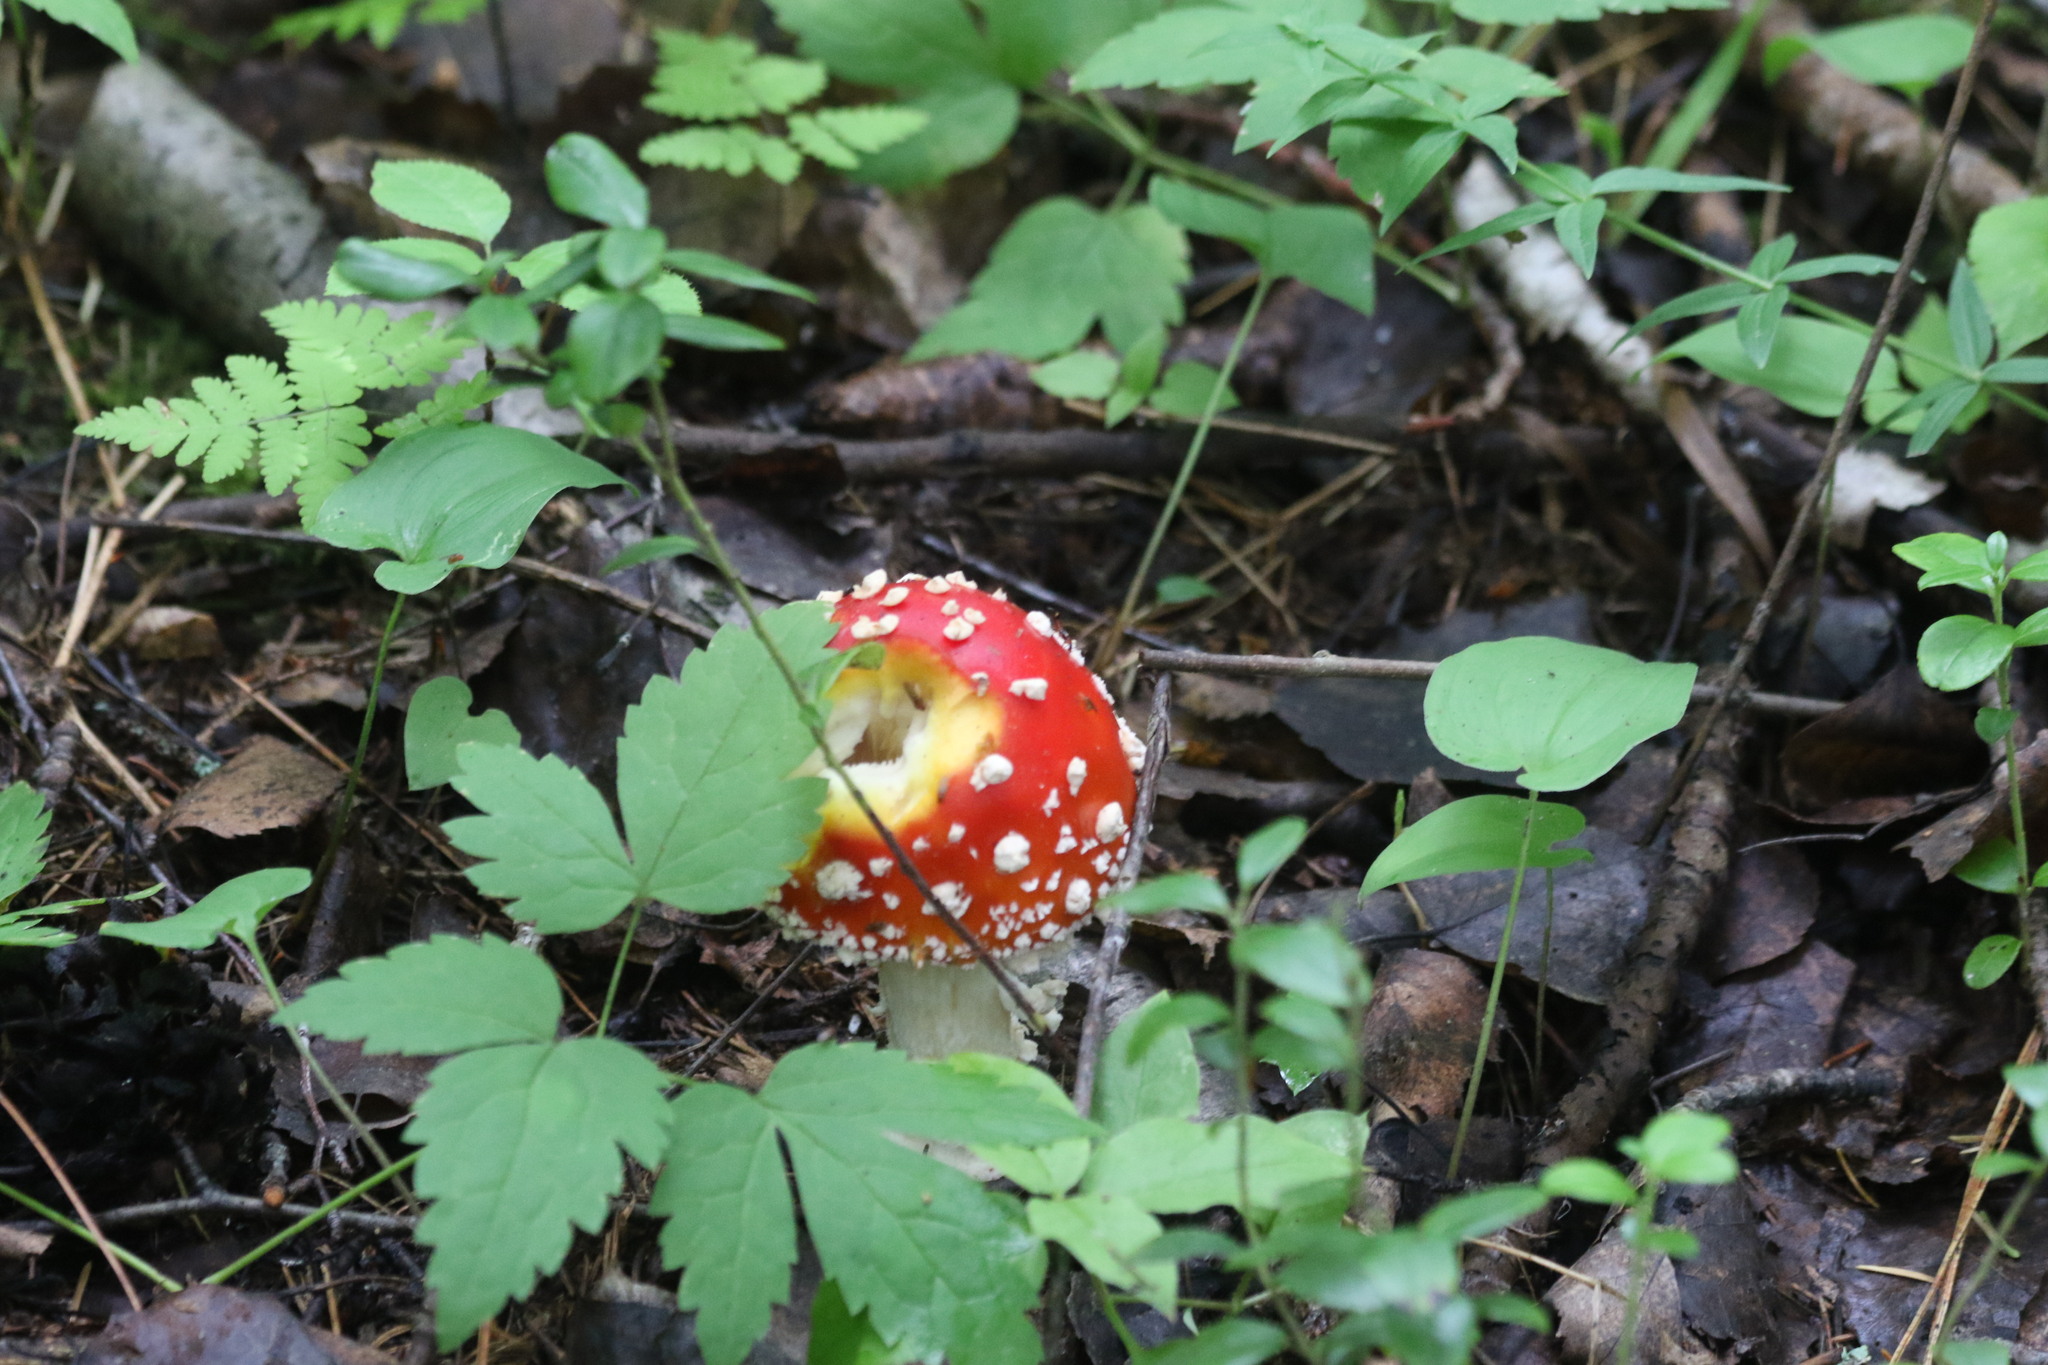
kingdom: Fungi
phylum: Basidiomycota
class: Agaricomycetes
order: Agaricales
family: Amanitaceae
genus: Amanita
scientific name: Amanita muscaria
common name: Fly agaric
